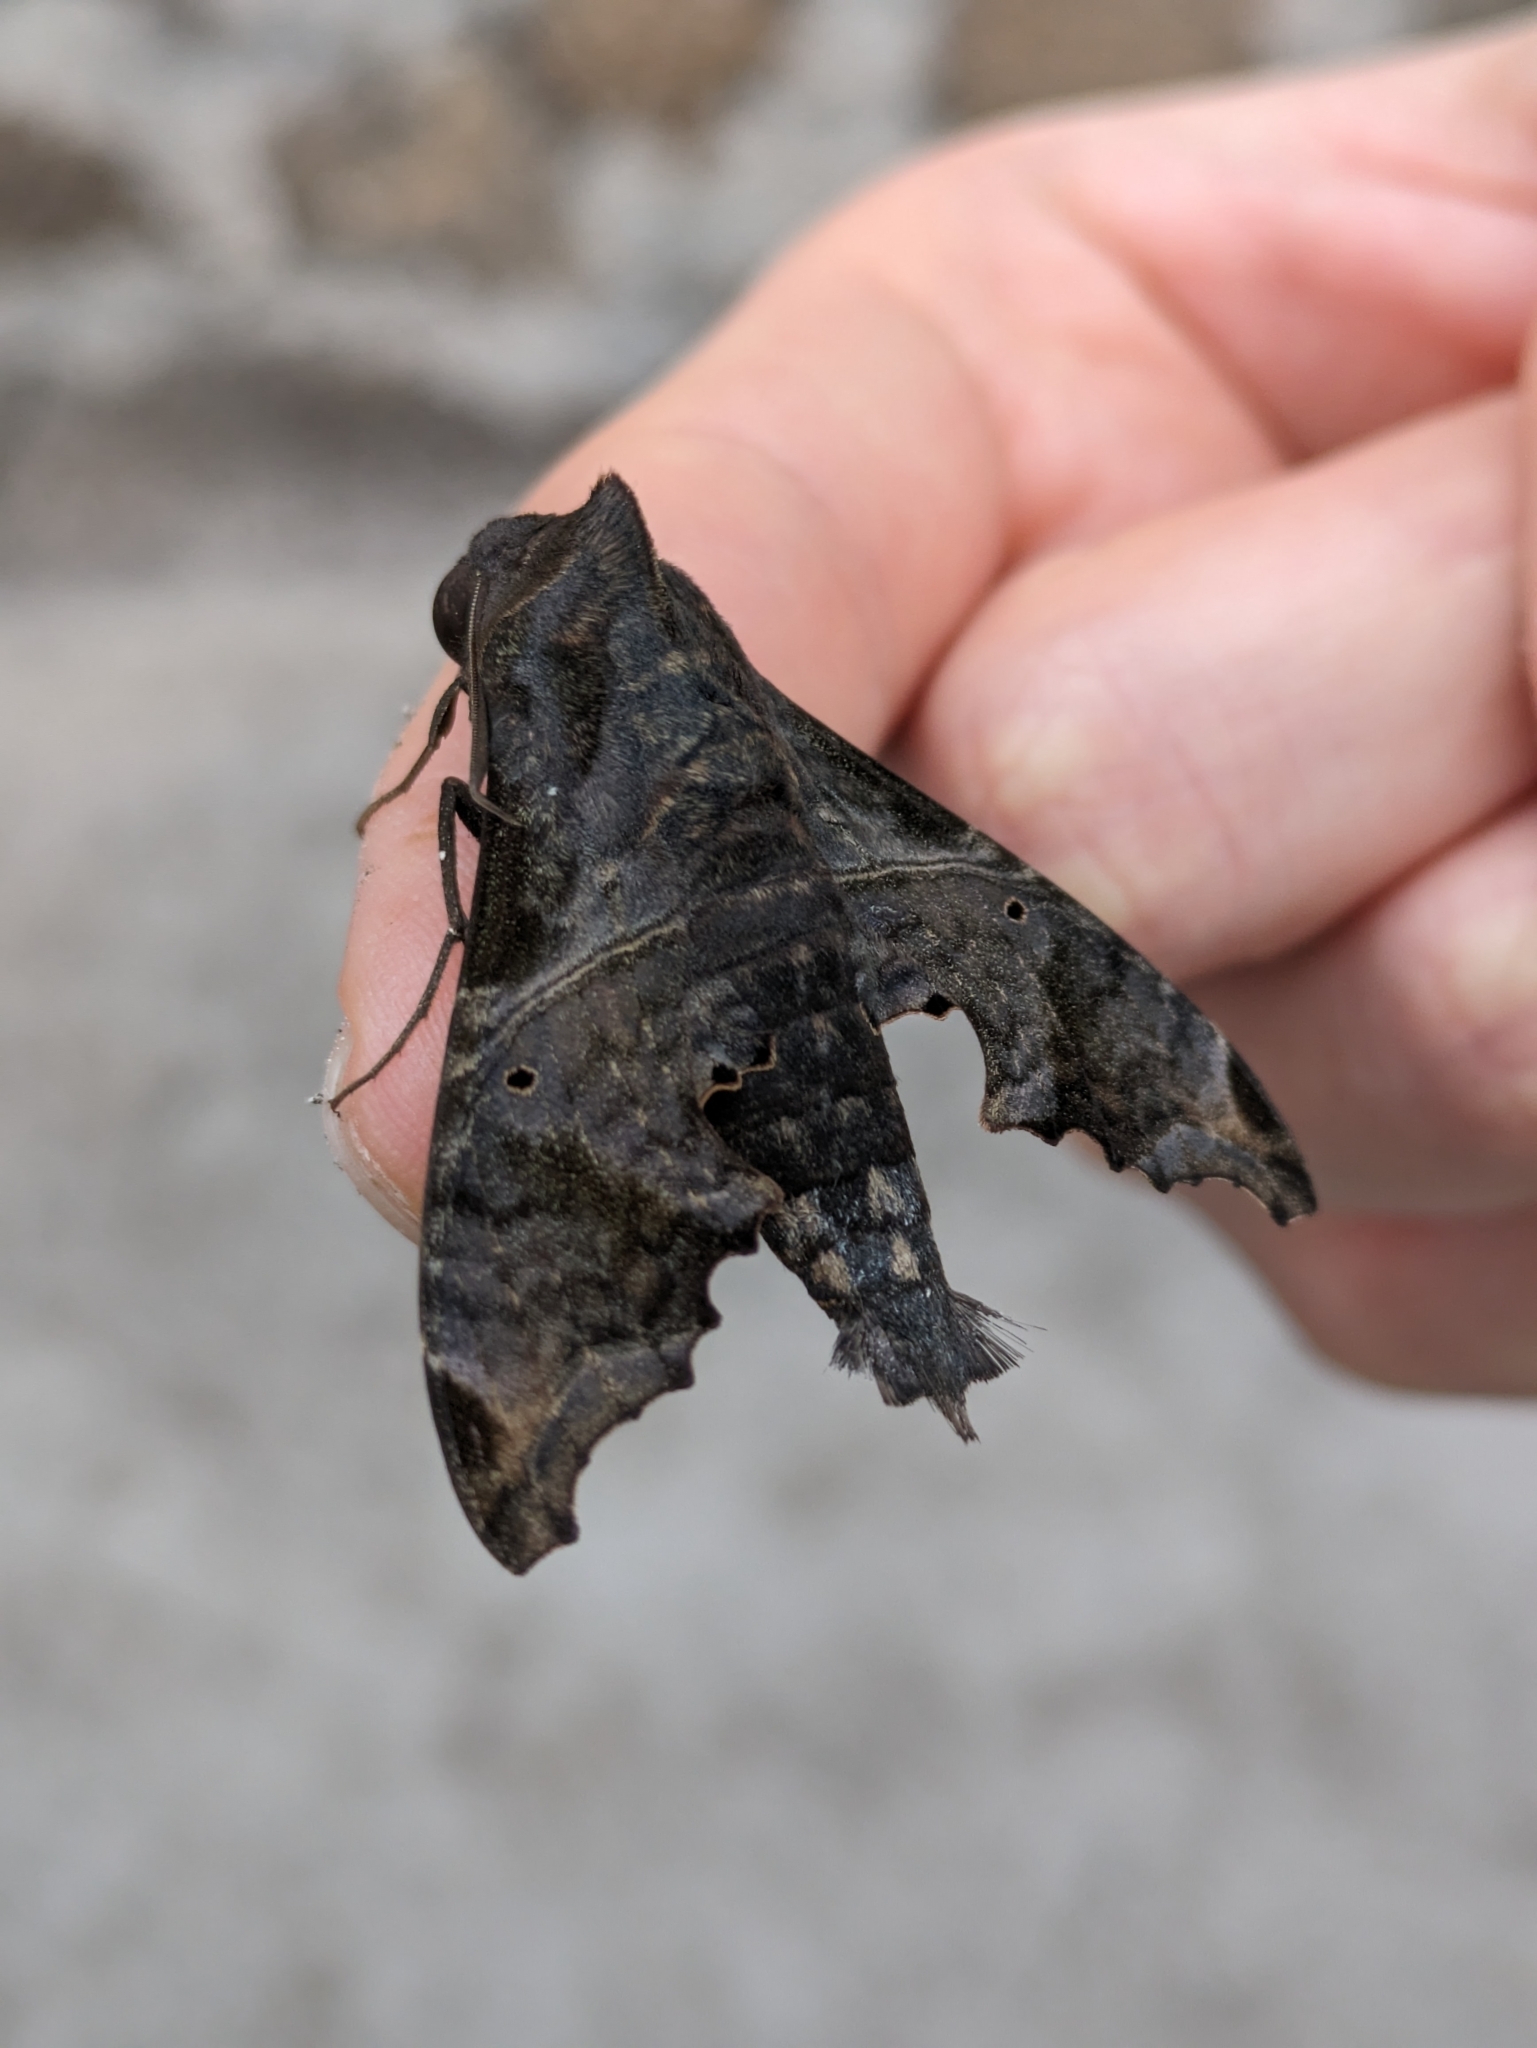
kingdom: Animalia
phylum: Arthropoda
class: Insecta
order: Lepidoptera
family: Sphingidae
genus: Enyo
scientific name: Enyo lugubris
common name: Mournful sphinx
